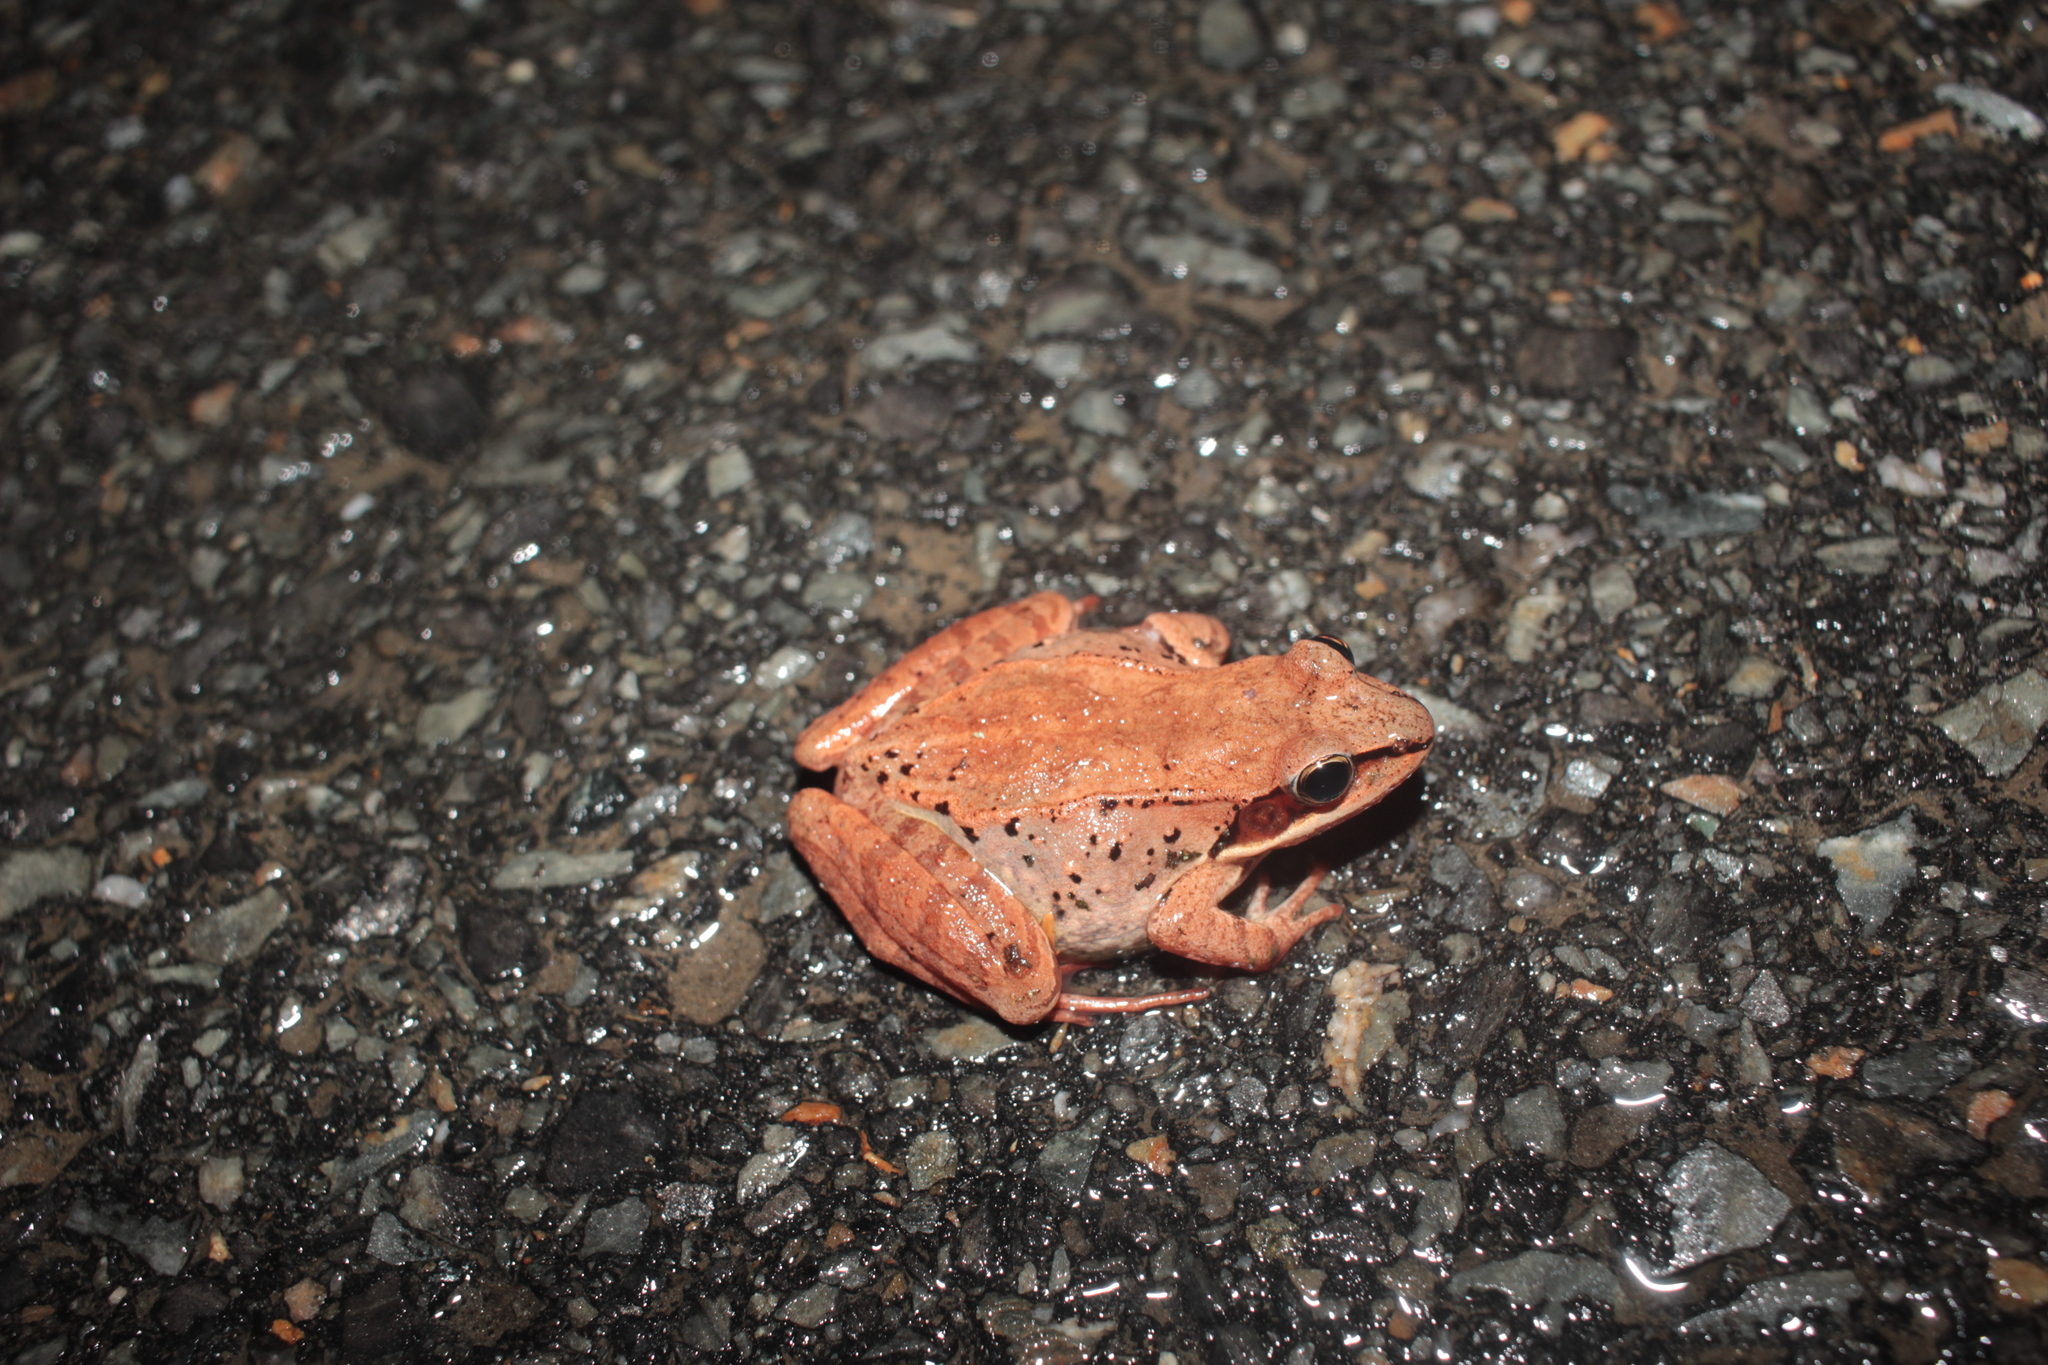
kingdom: Animalia
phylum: Chordata
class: Amphibia
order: Anura
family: Ranidae
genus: Lithobates
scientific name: Lithobates sylvaticus
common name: Wood frog
